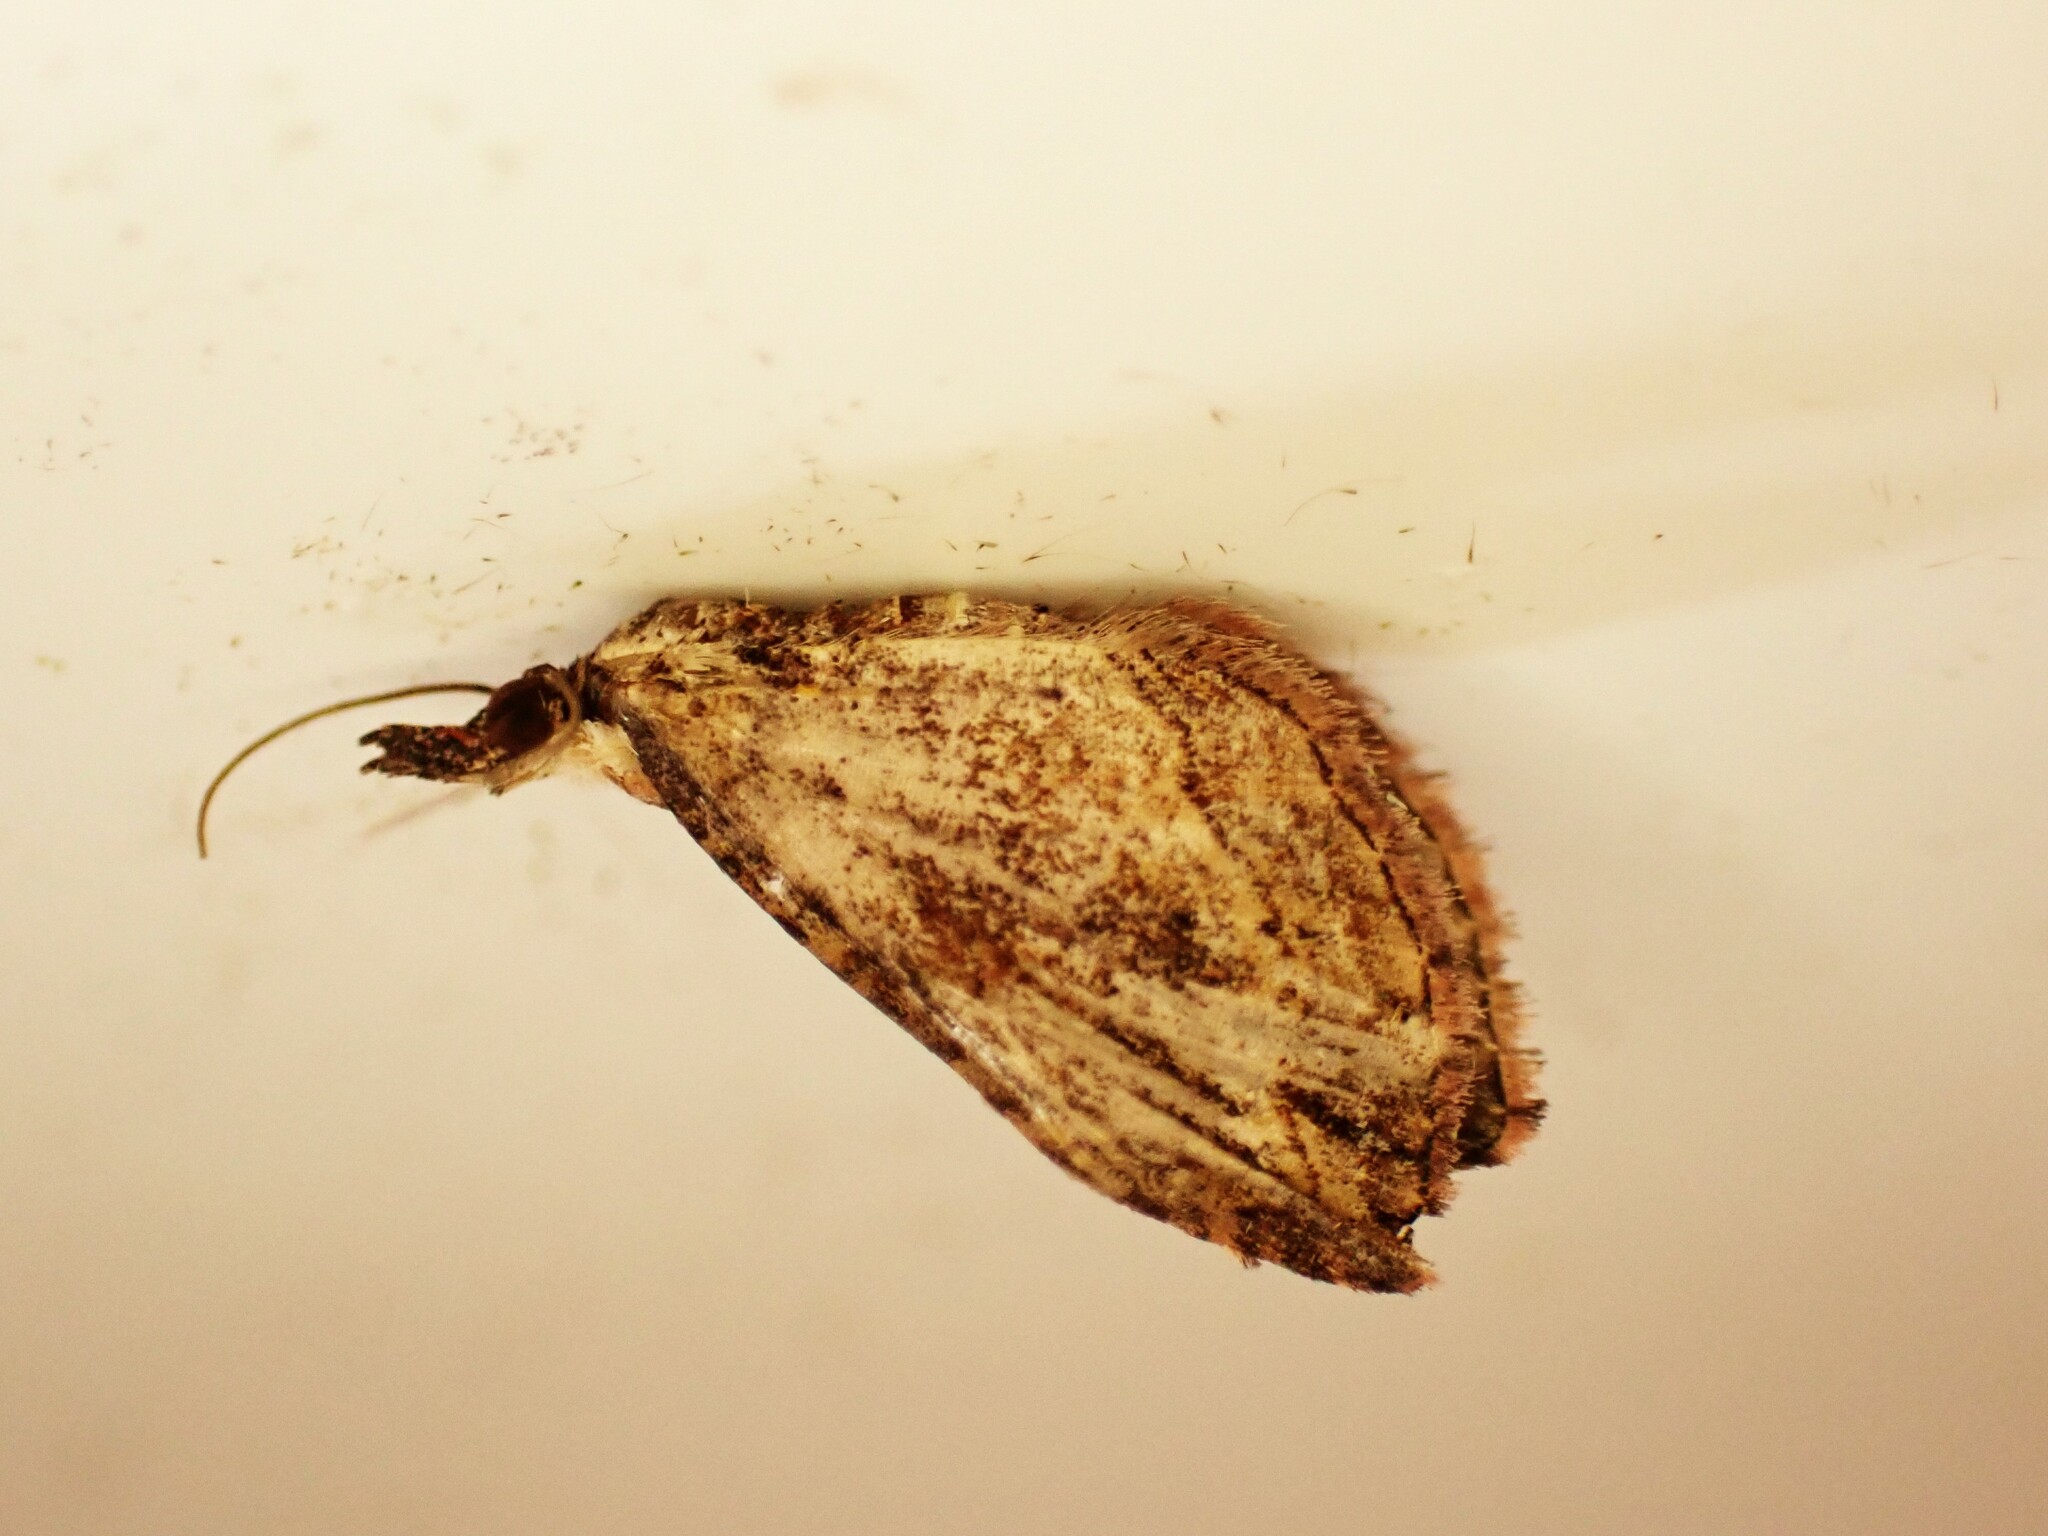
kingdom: Animalia
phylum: Arthropoda
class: Insecta
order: Lepidoptera
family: Geometridae
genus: Chloroclystis
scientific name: Chloroclystis filata
